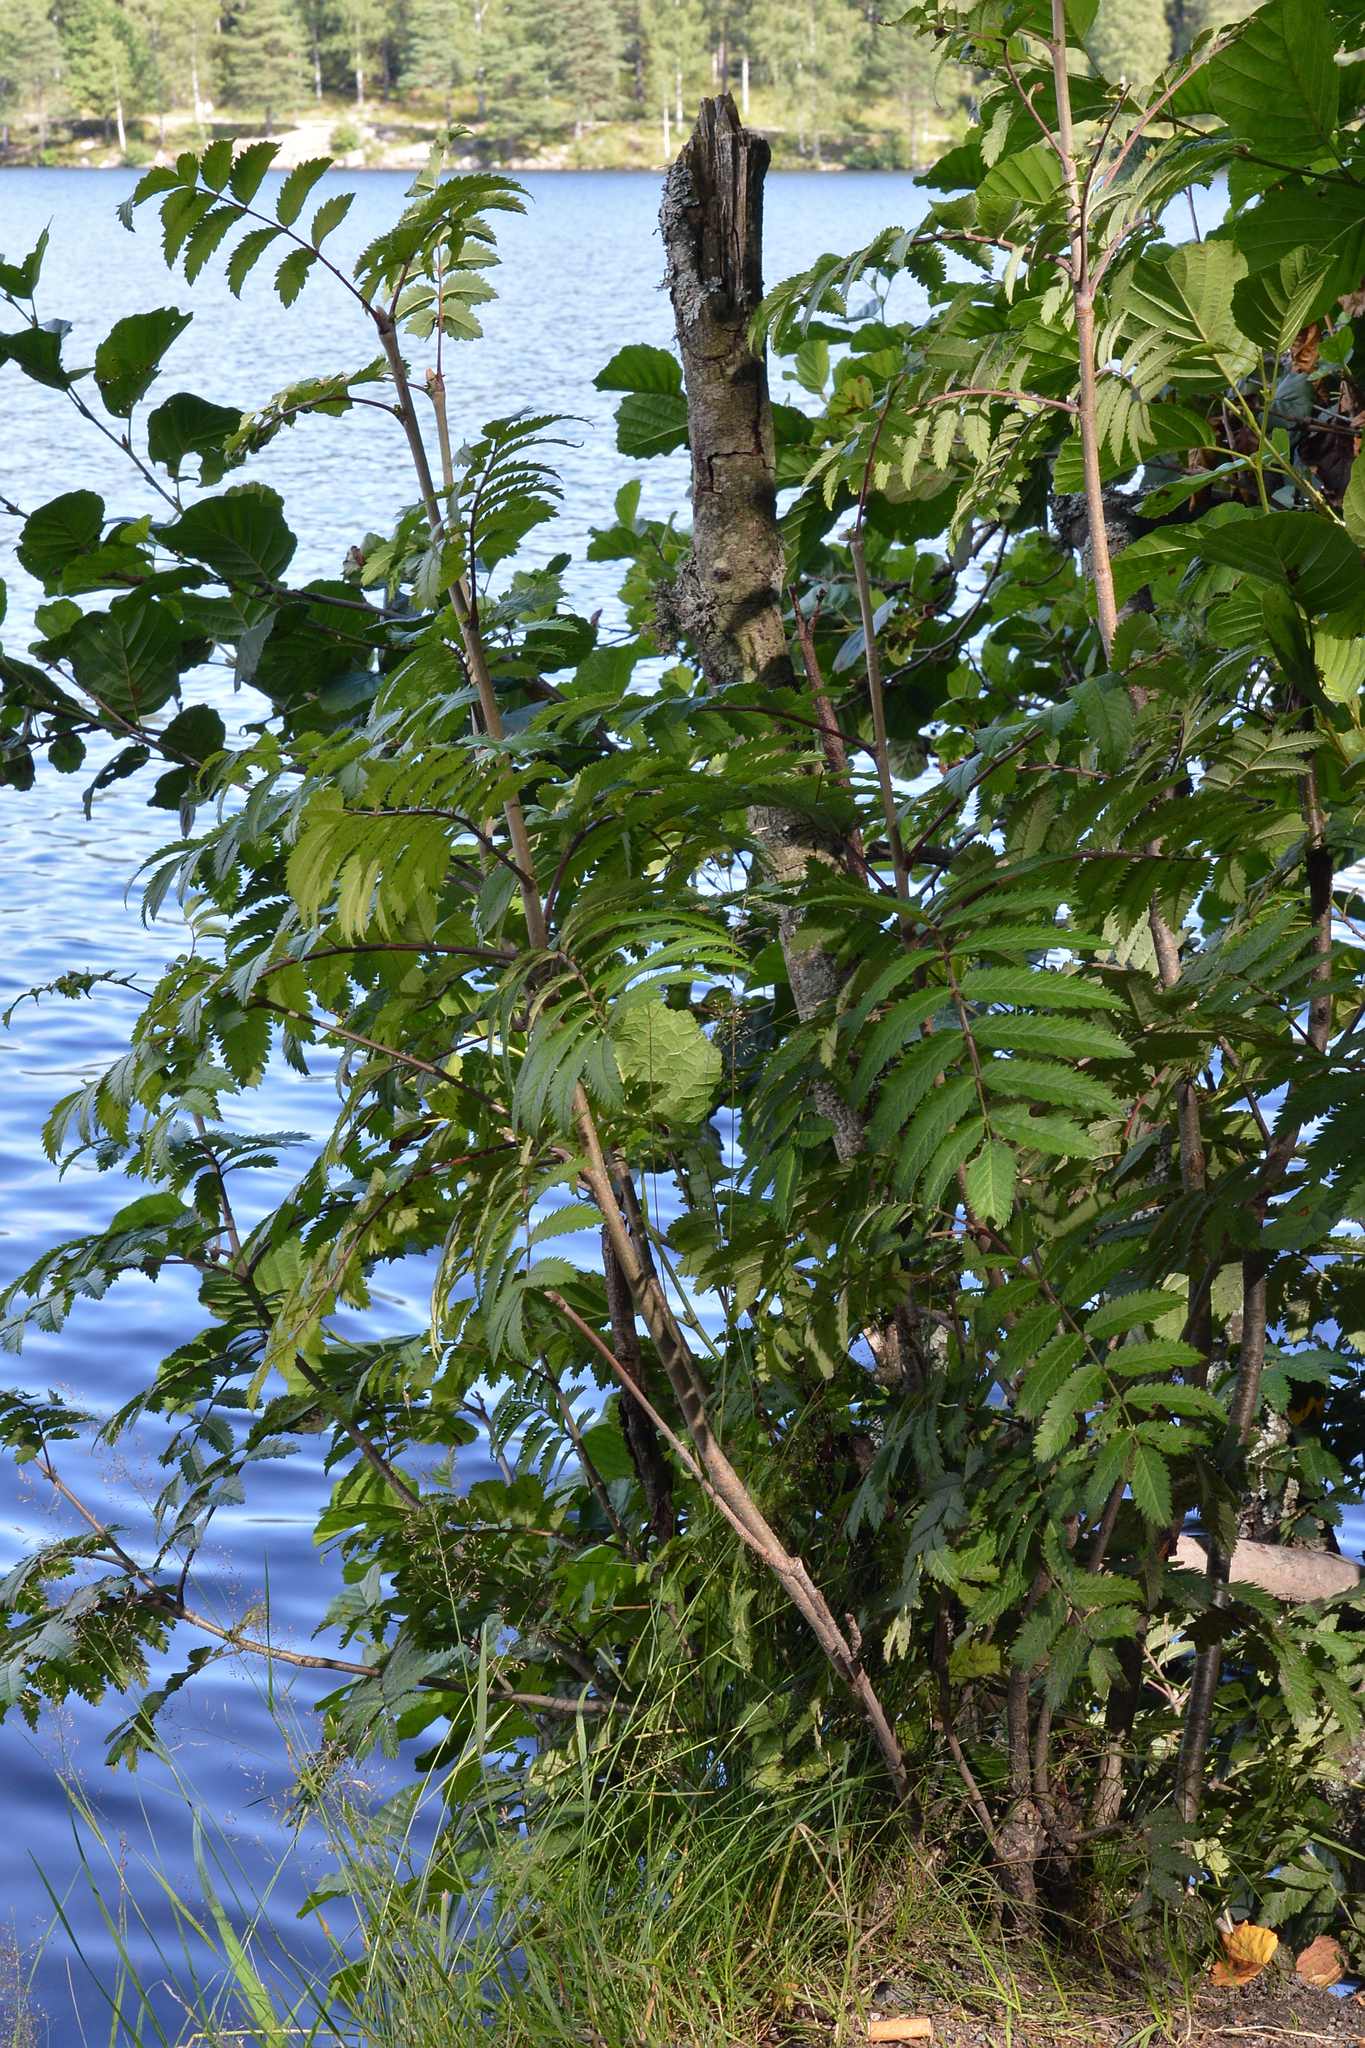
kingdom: Plantae
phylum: Tracheophyta
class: Magnoliopsida
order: Rosales
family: Rosaceae
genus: Sorbus
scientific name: Sorbus aucuparia
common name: Rowan
